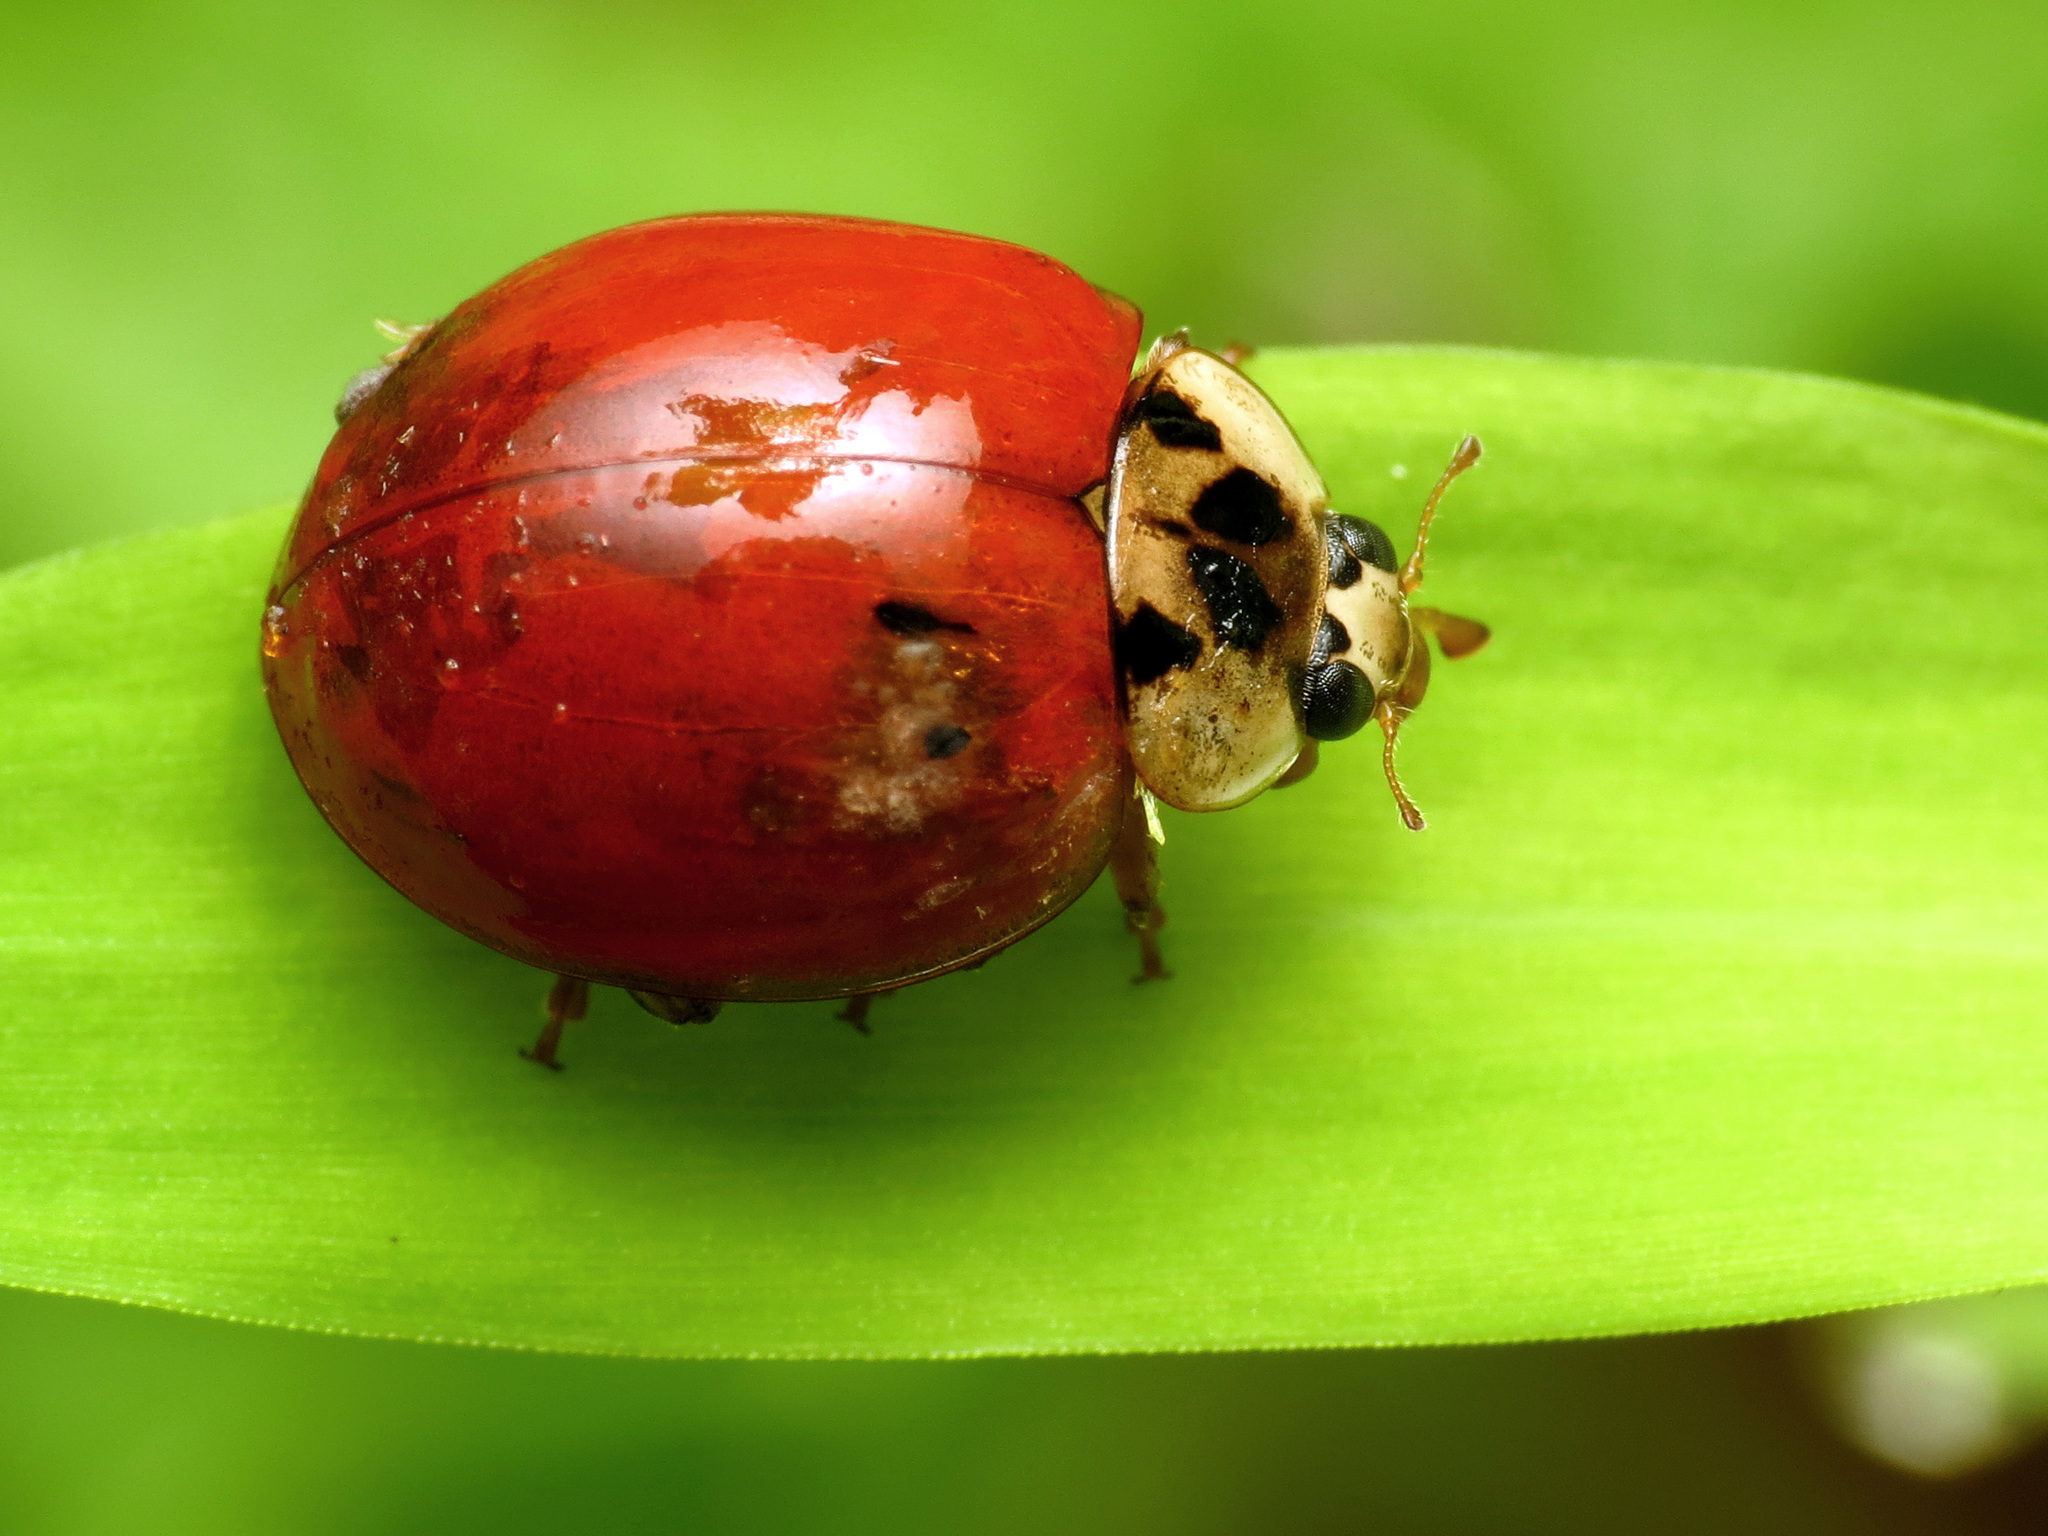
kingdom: Animalia
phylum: Arthropoda
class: Insecta
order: Coleoptera
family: Coccinellidae
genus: Harmonia
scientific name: Harmonia axyridis
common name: Harlequin ladybird
